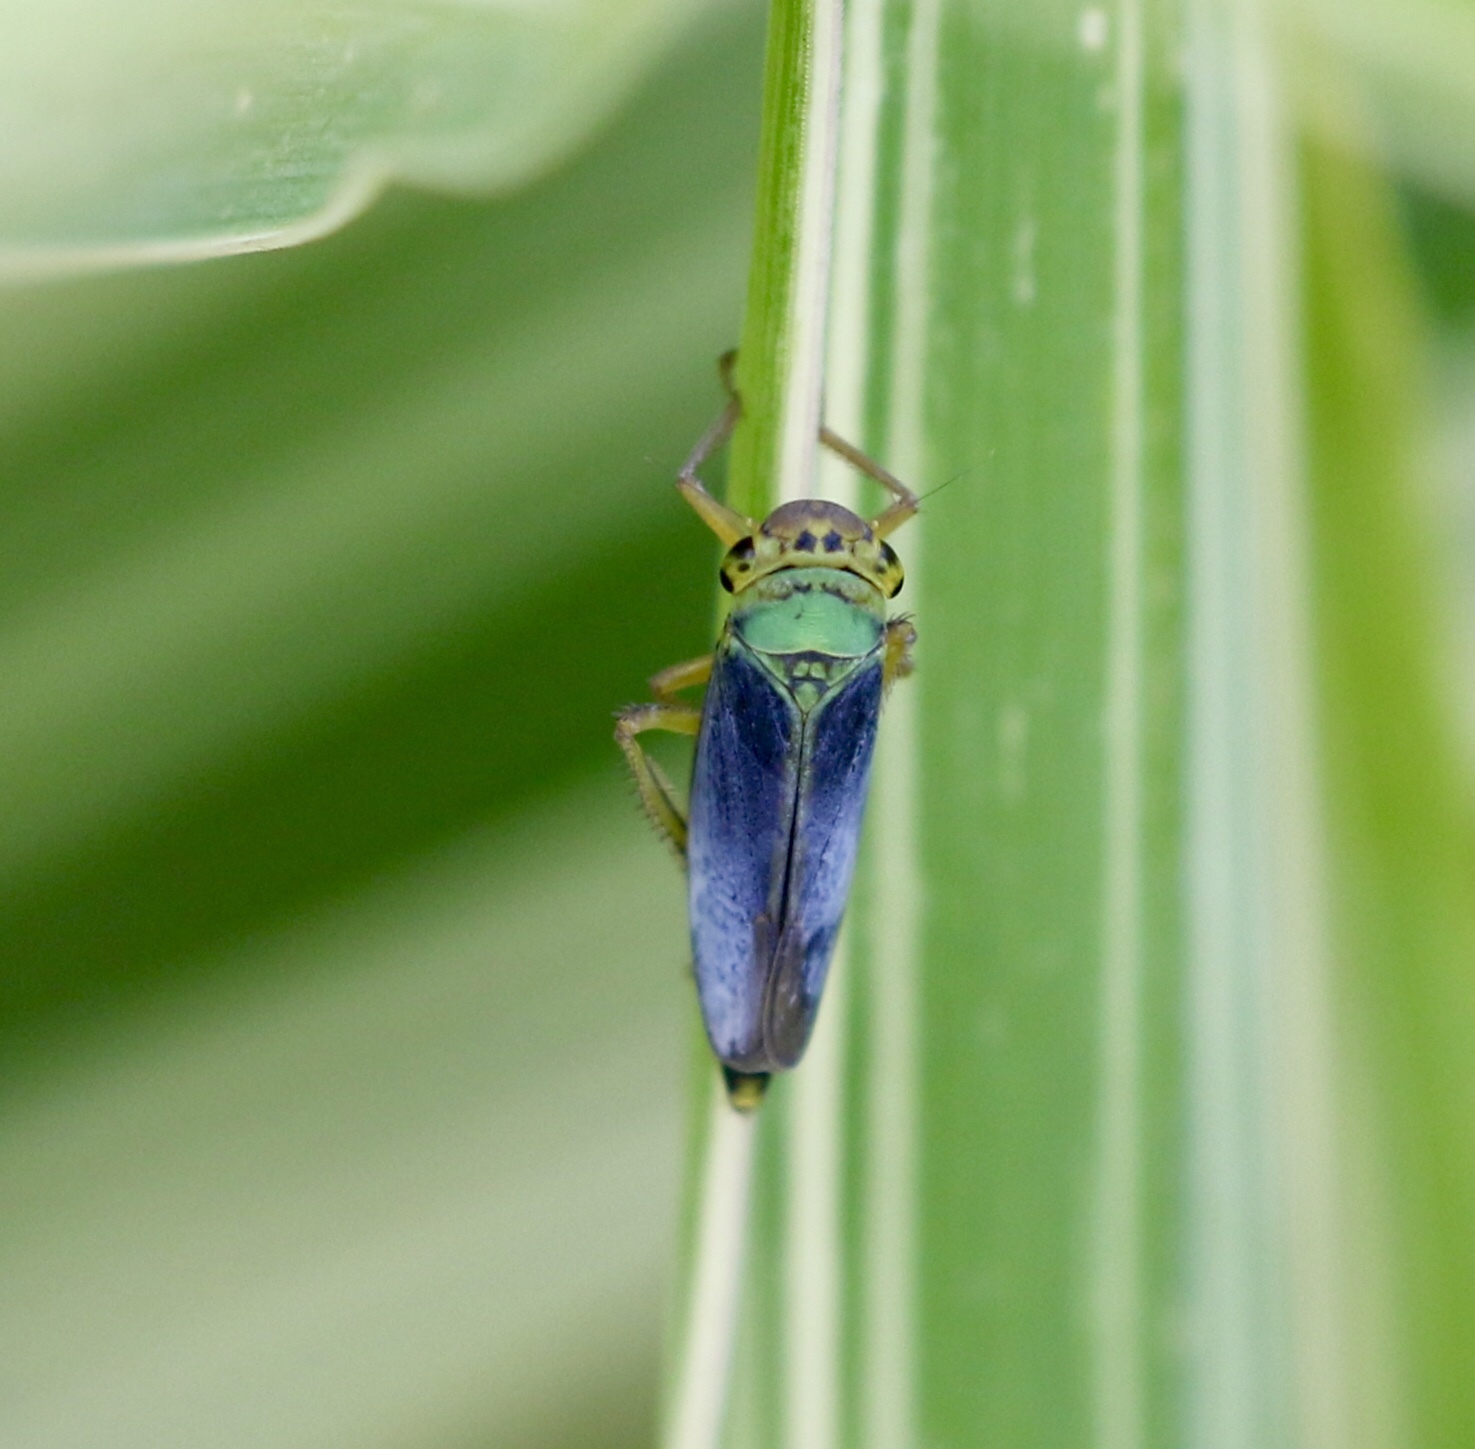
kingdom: Animalia
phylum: Arthropoda
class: Insecta
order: Hemiptera
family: Cicadellidae
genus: Cicadella
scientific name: Cicadella viridis
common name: Leafhopper
